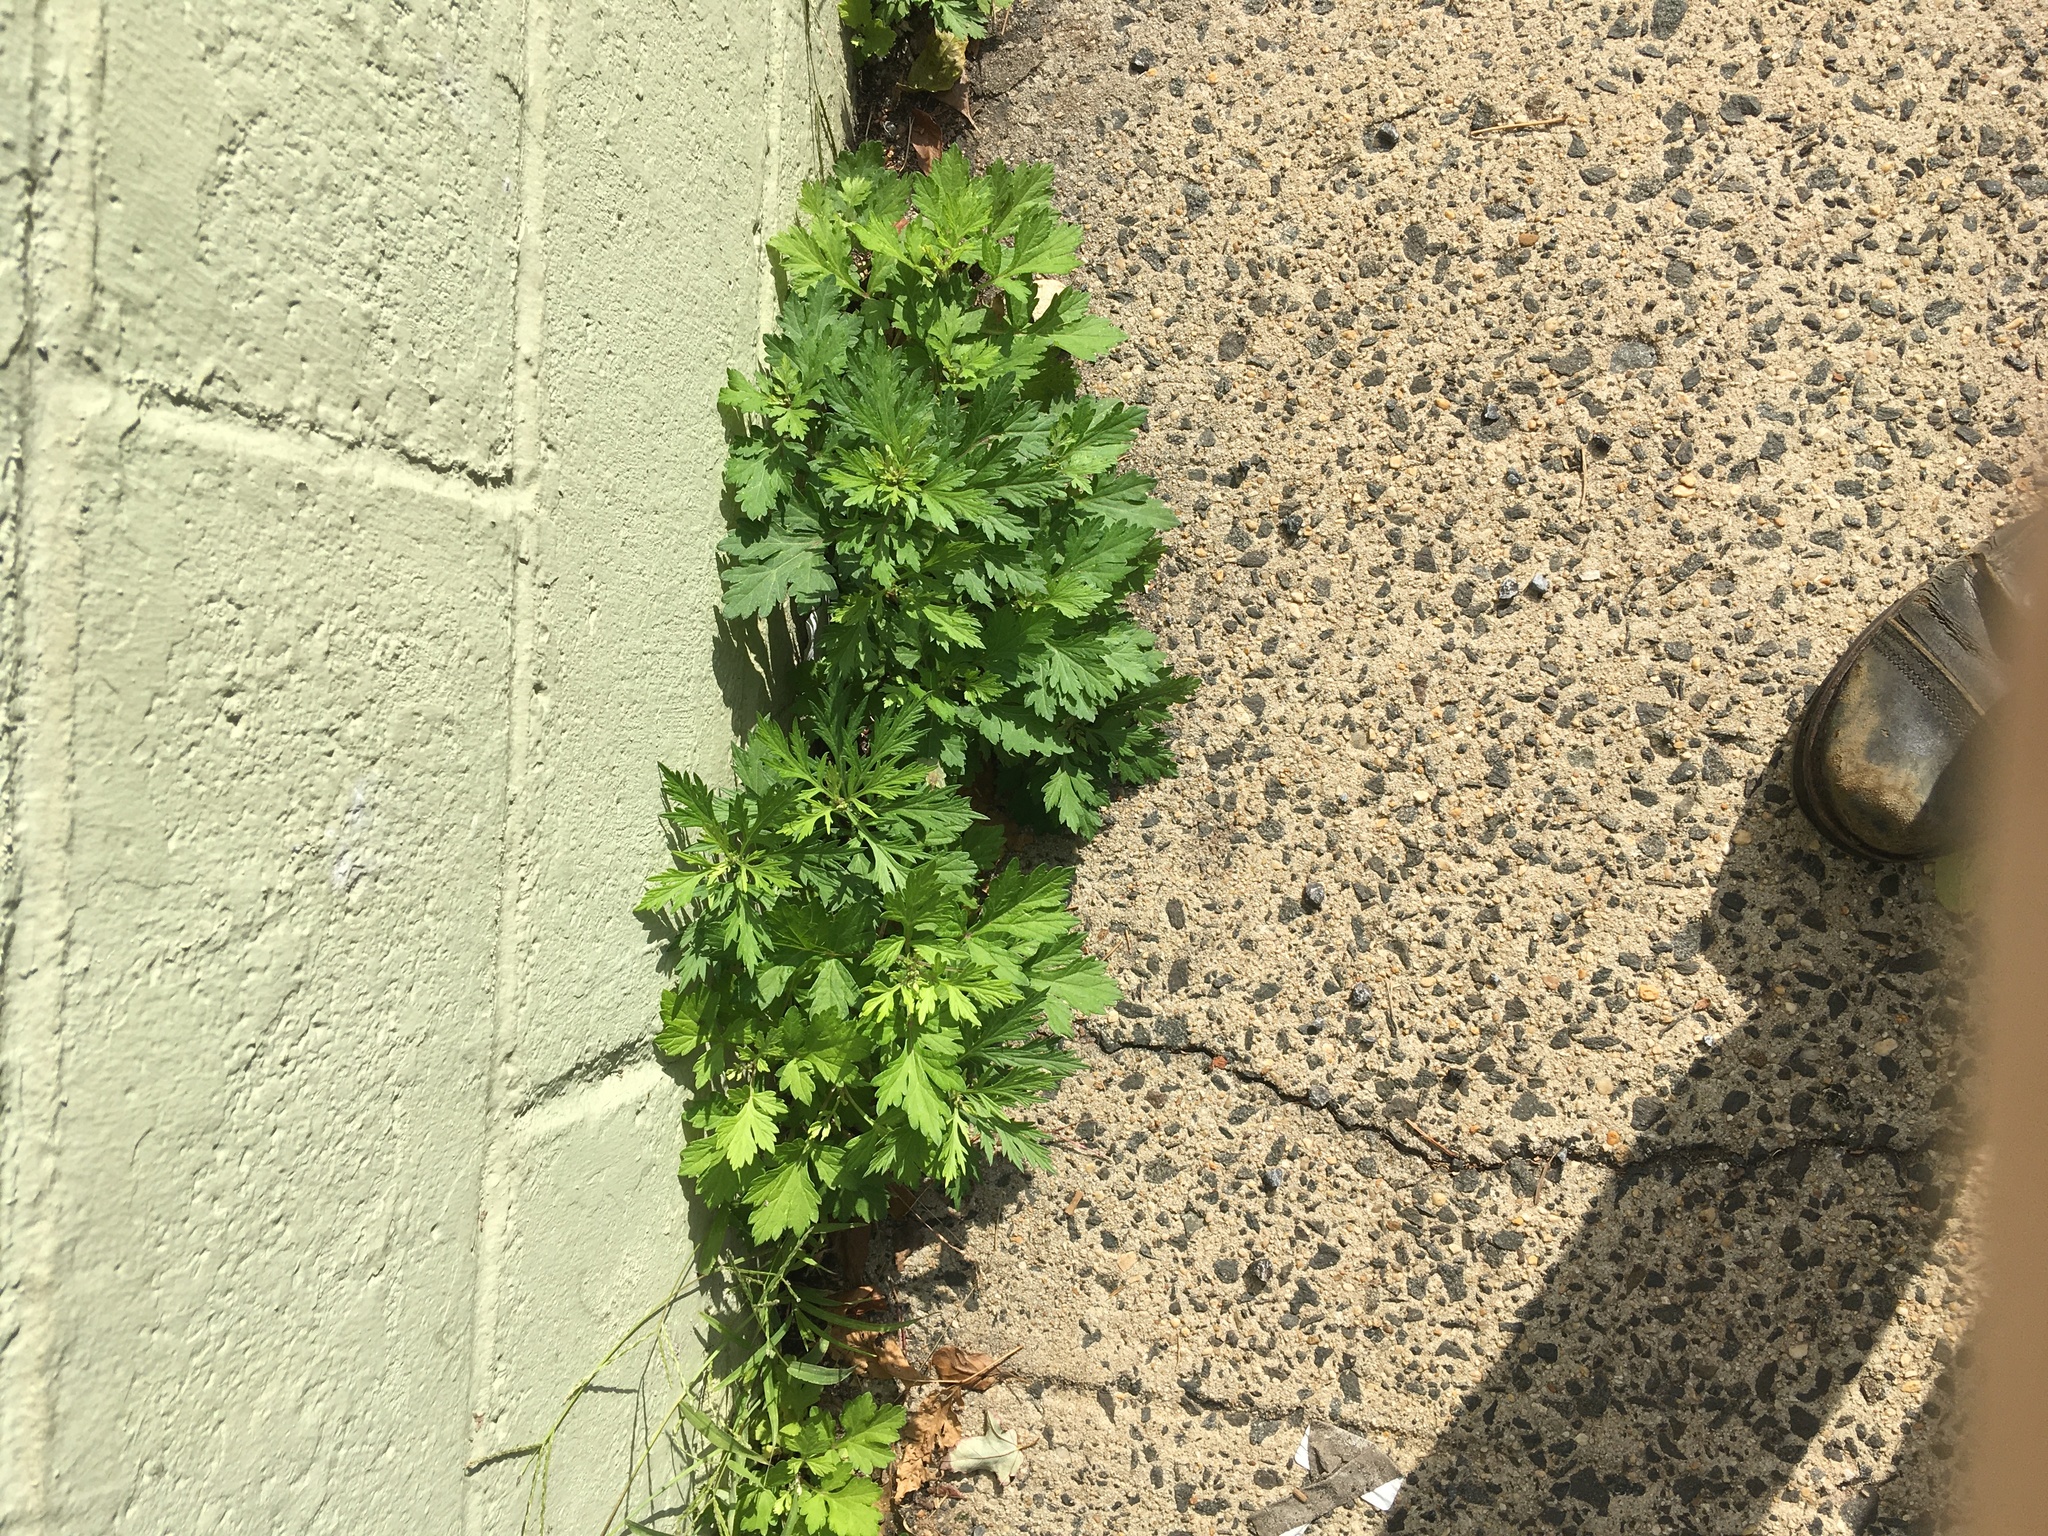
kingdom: Plantae
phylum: Tracheophyta
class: Magnoliopsida
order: Asterales
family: Asteraceae
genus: Artemisia
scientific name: Artemisia vulgaris
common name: Mugwort
